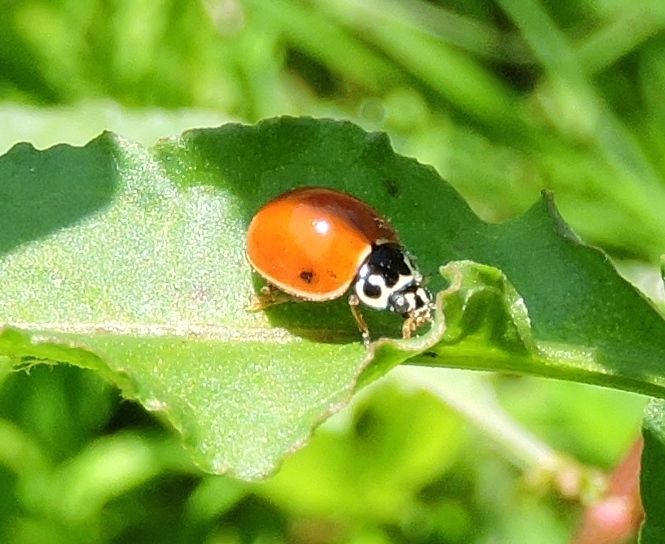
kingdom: Animalia
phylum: Arthropoda
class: Insecta
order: Coleoptera
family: Coccinellidae
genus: Cycloneda
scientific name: Cycloneda munda
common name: Polished lady beetle
